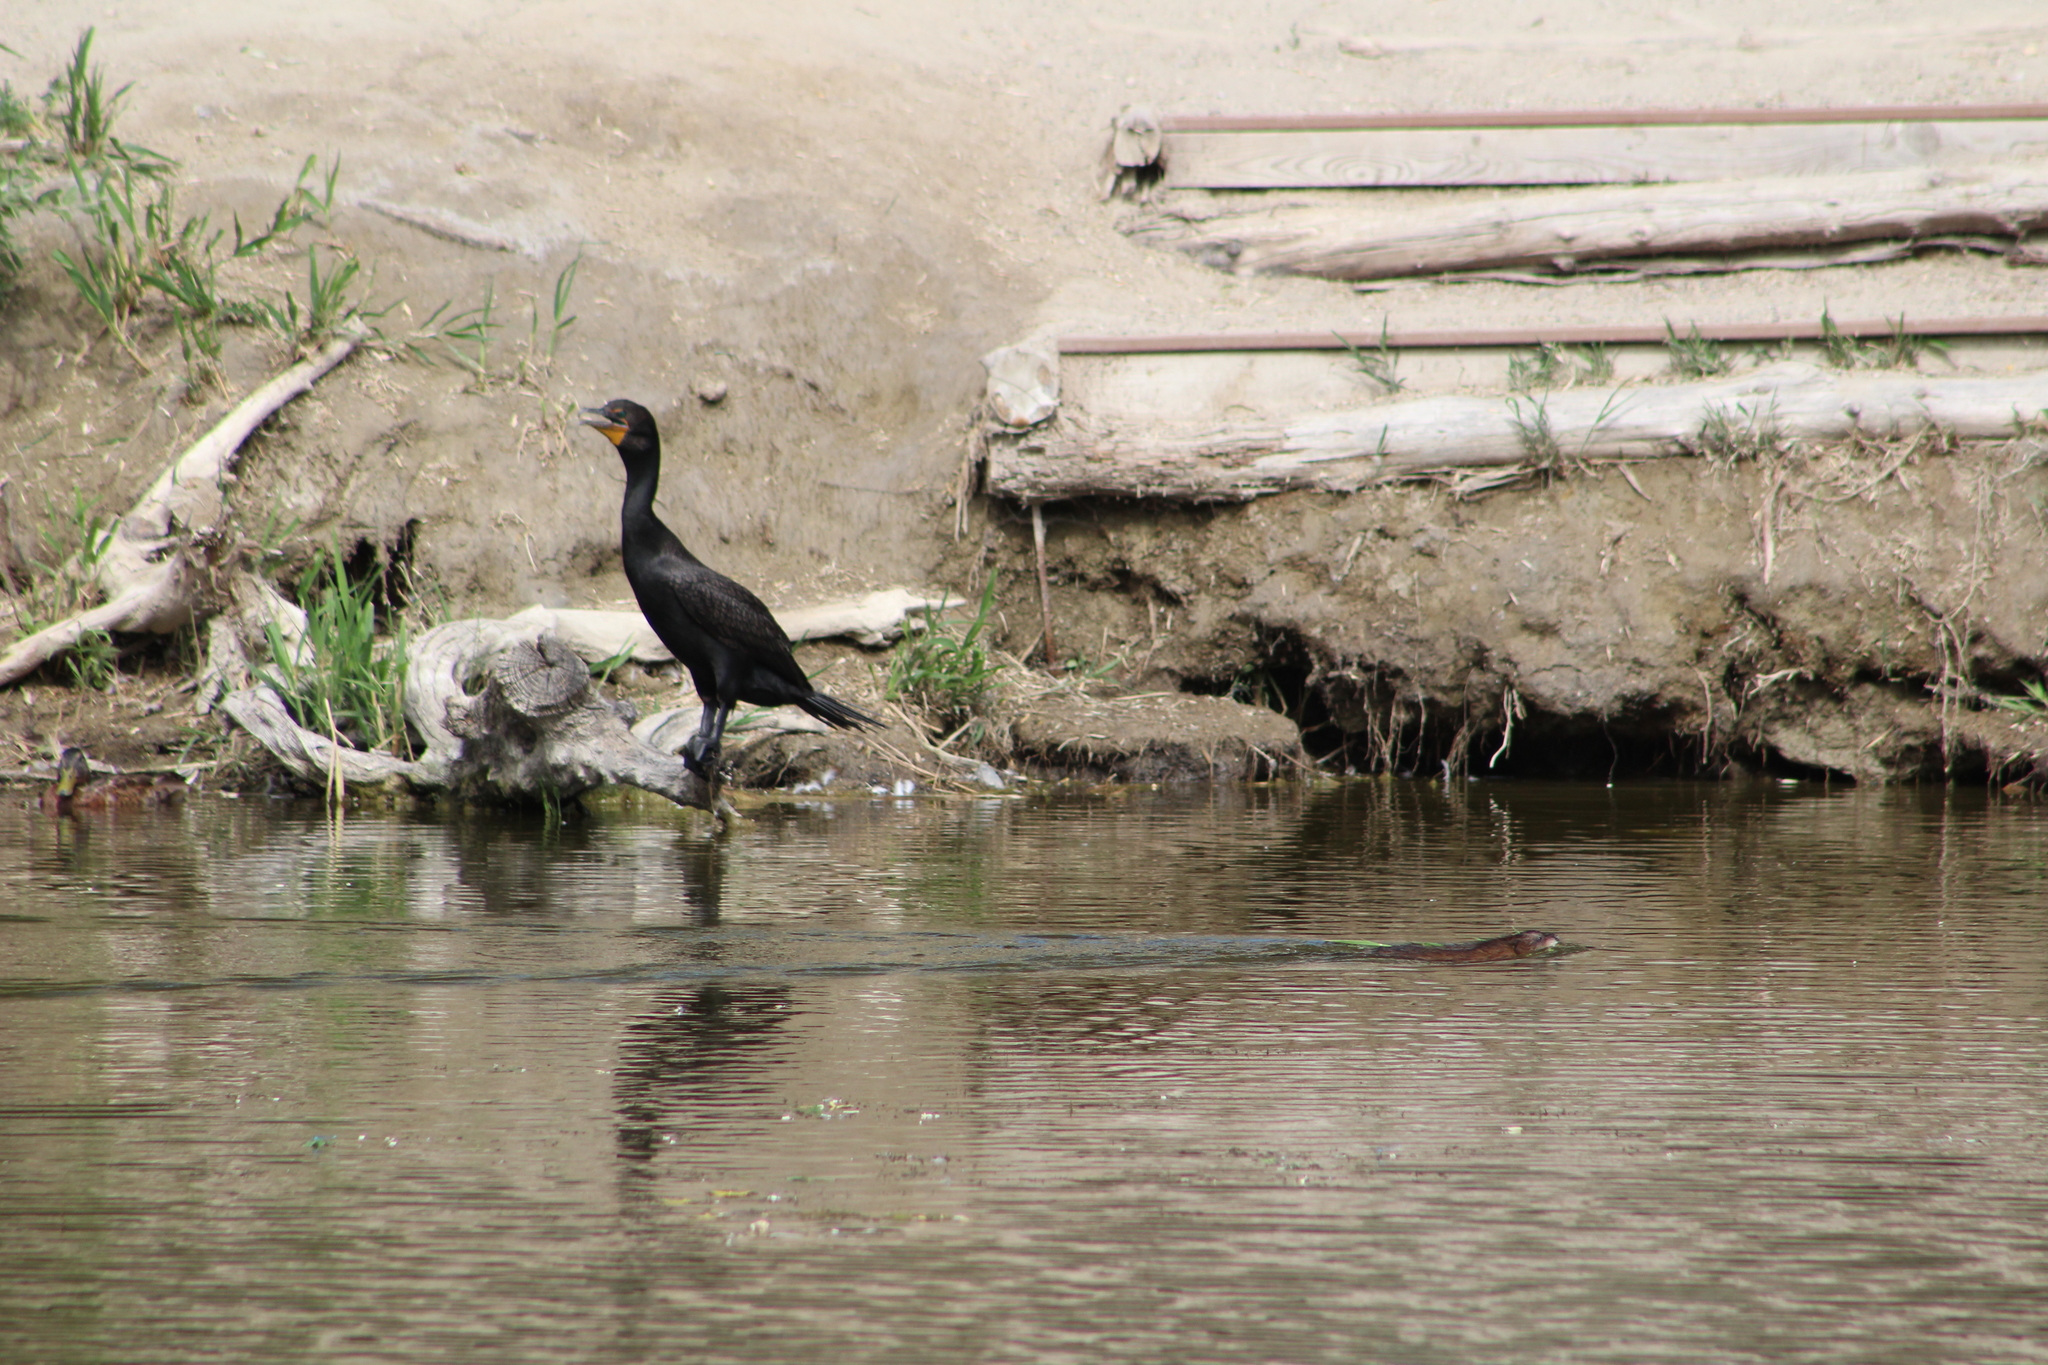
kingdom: Animalia
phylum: Chordata
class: Mammalia
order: Rodentia
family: Cricetidae
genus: Ondatra
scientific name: Ondatra zibethicus
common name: Muskrat
